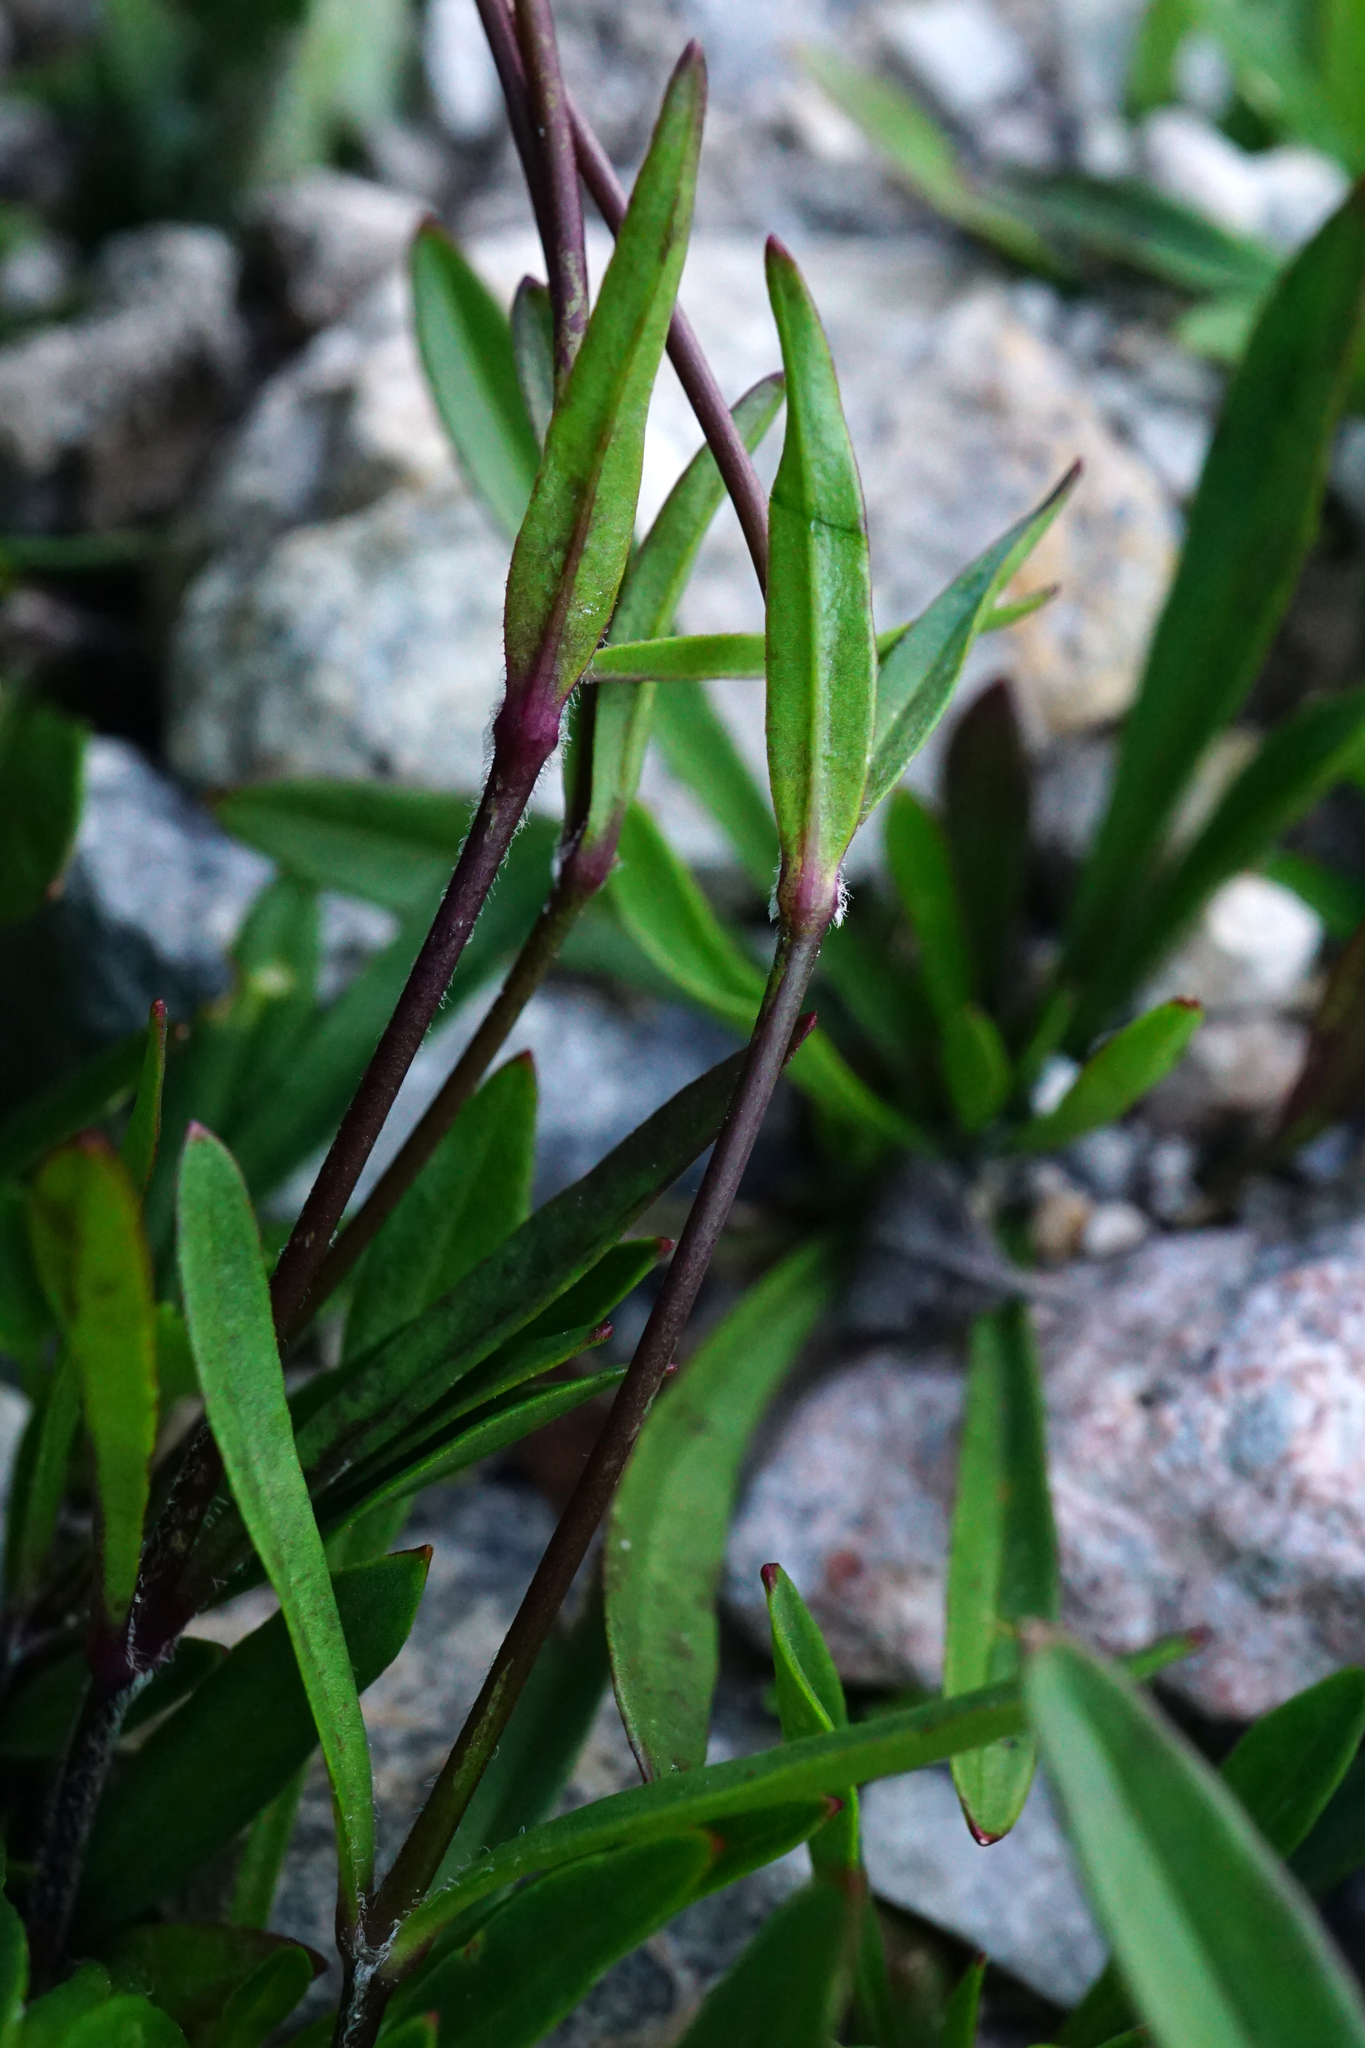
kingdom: Plantae
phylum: Tracheophyta
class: Magnoliopsida
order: Caryophyllales
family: Caryophyllaceae
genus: Heliosperma
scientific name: Heliosperma alpestre
